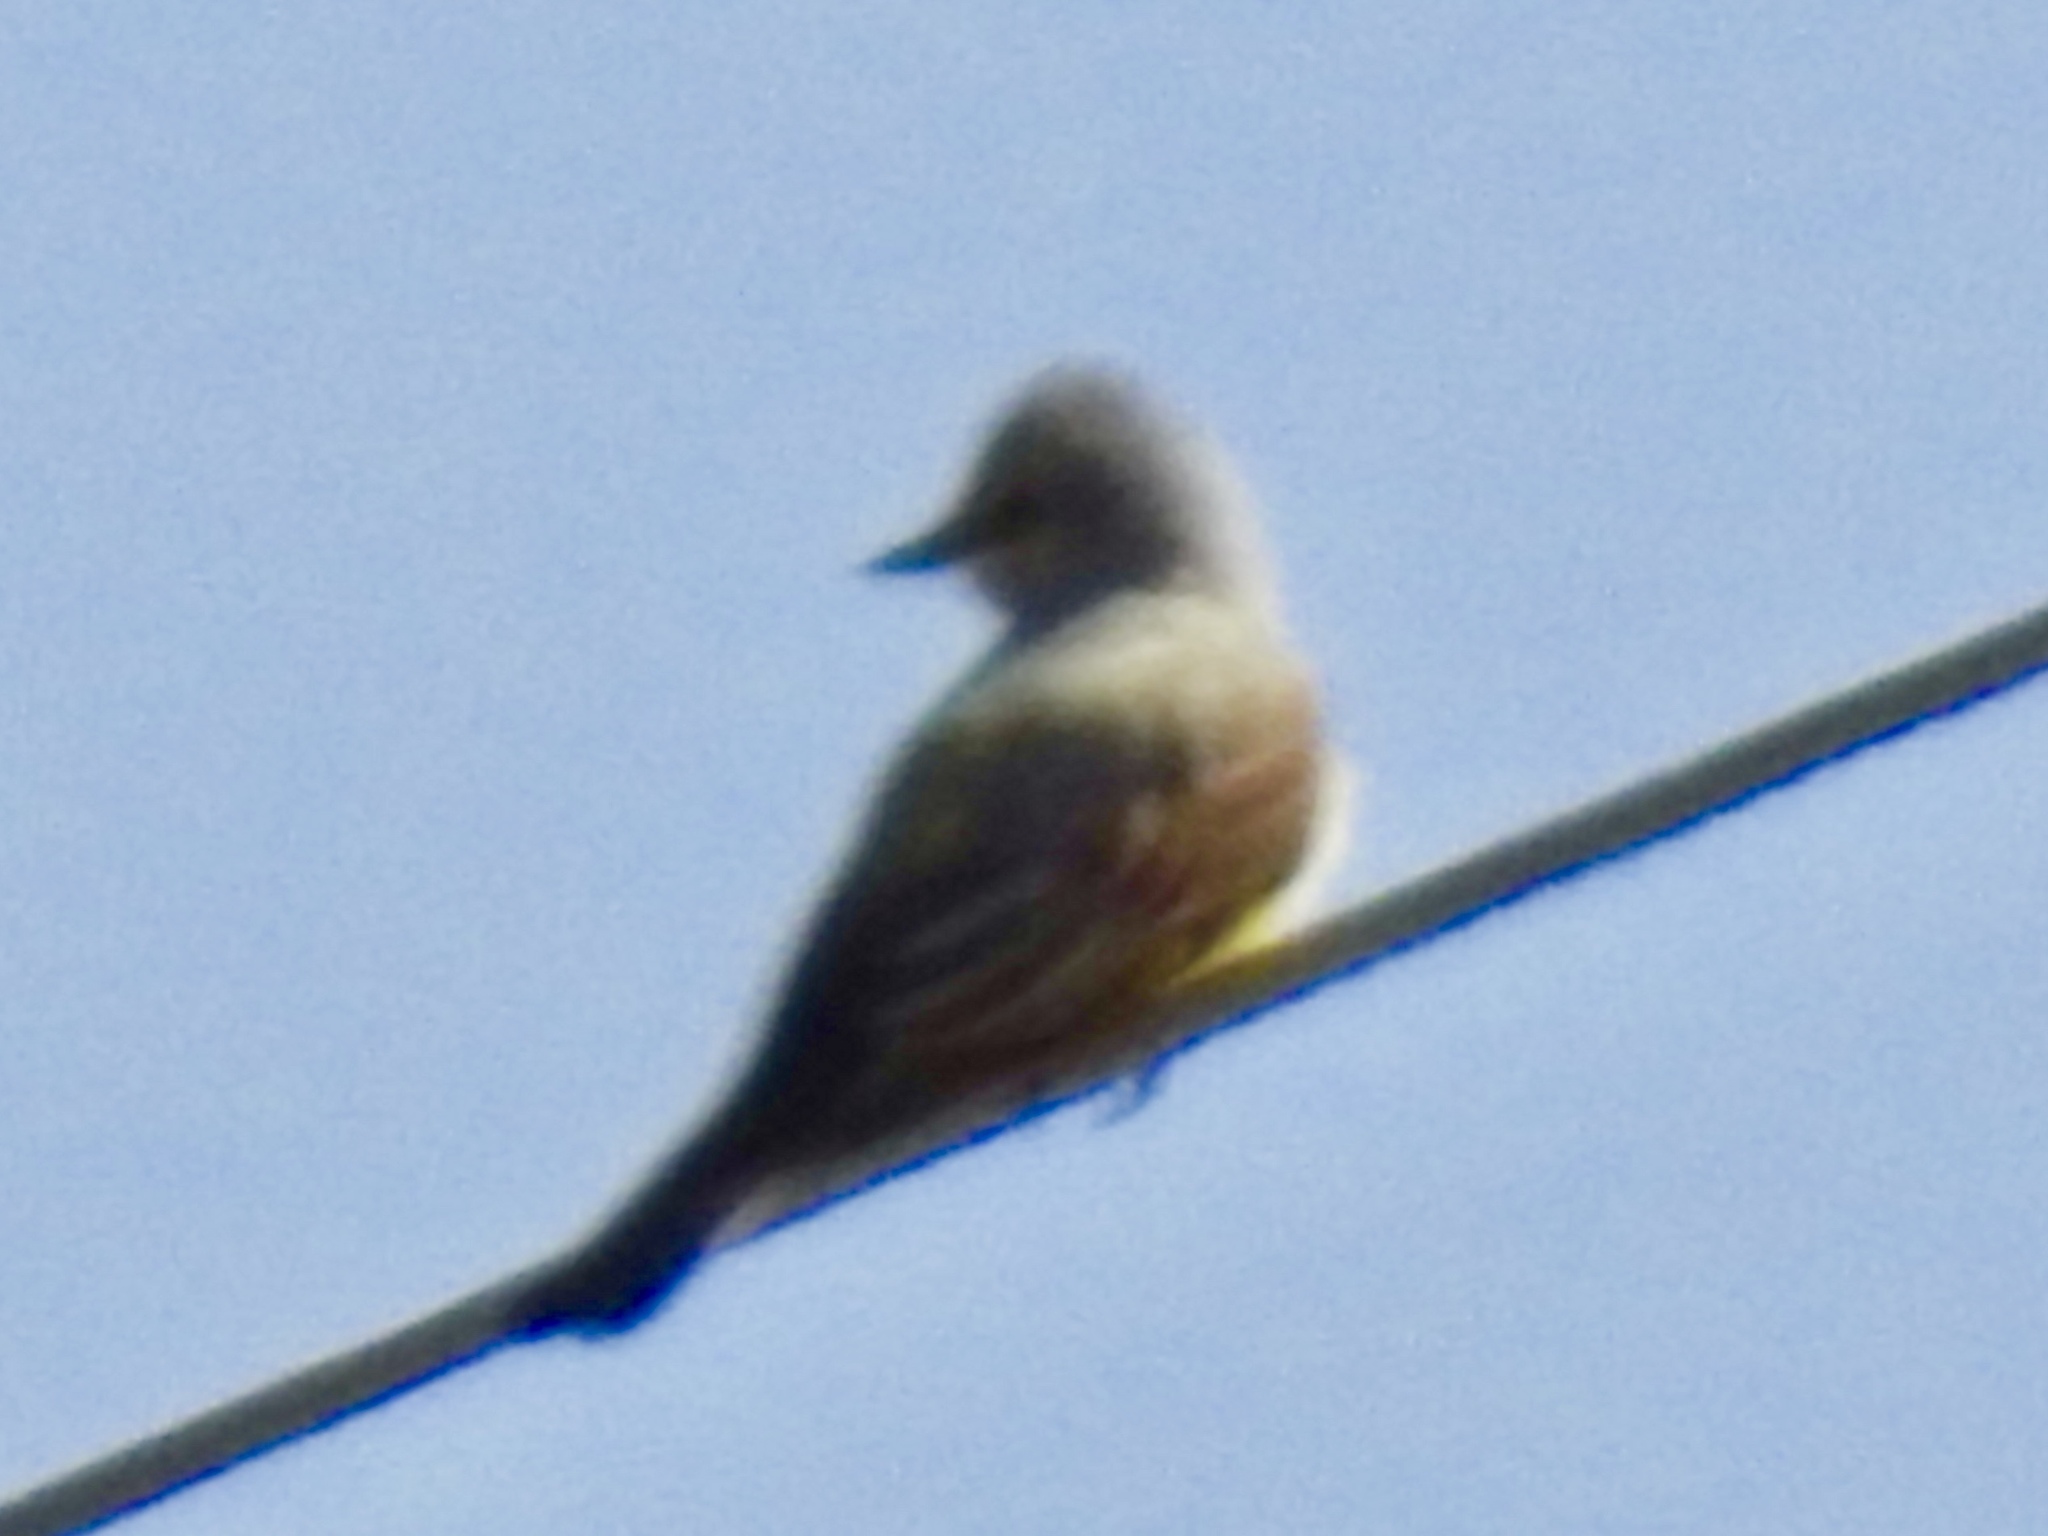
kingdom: Animalia
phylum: Chordata
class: Aves
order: Passeriformes
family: Tyrannidae
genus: Tyrannus
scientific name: Tyrannus verticalis
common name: Western kingbird
